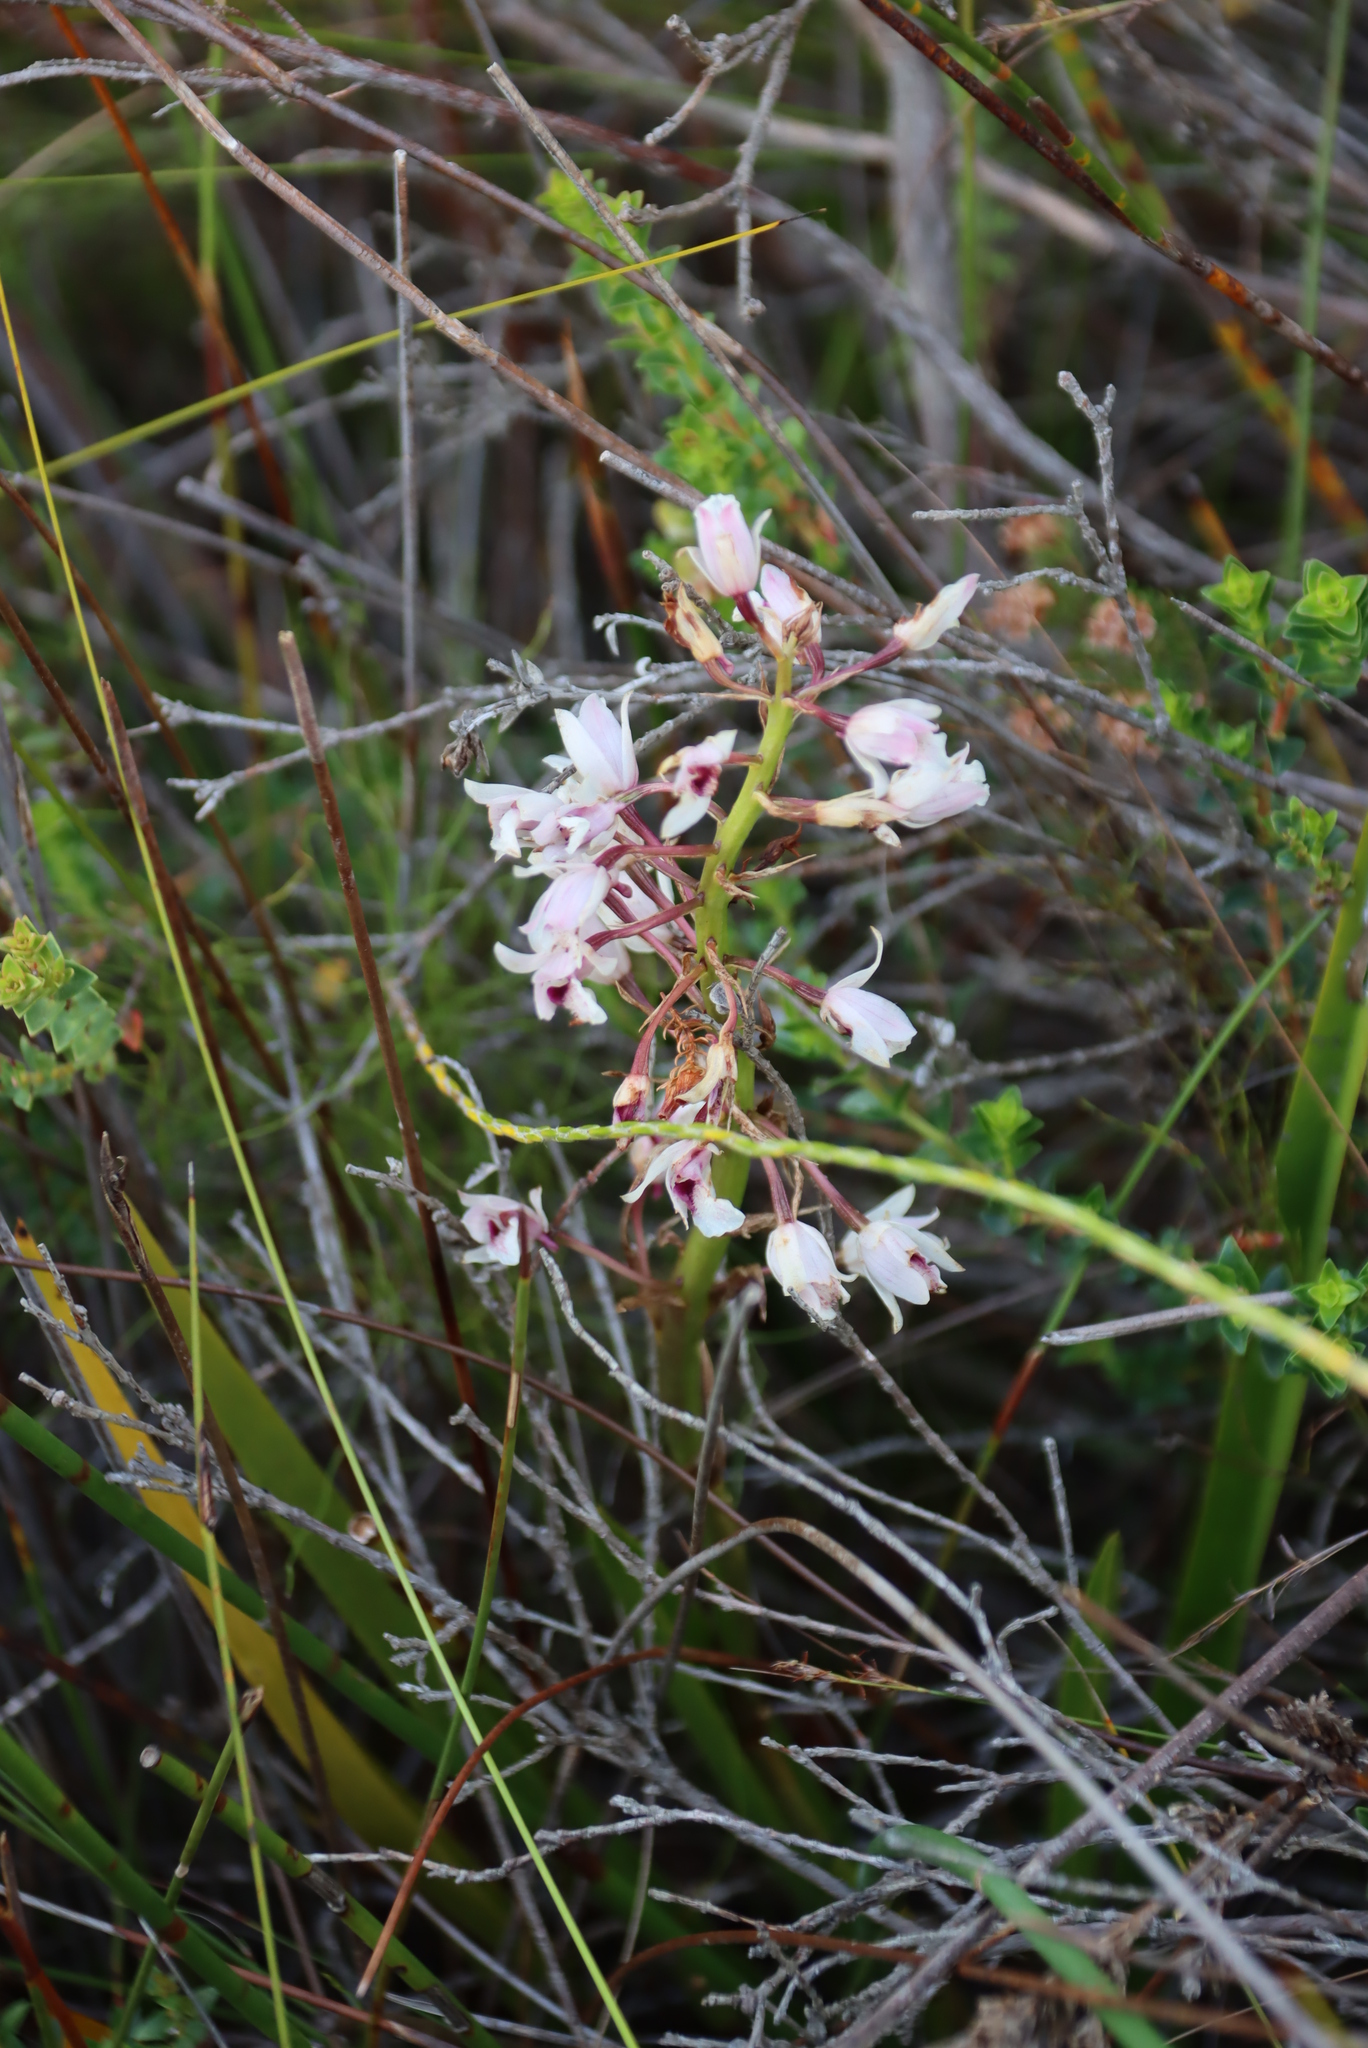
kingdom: Plantae
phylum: Tracheophyta
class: Liliopsida
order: Asparagales
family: Orchidaceae
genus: Eulophia
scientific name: Eulophia barbata
